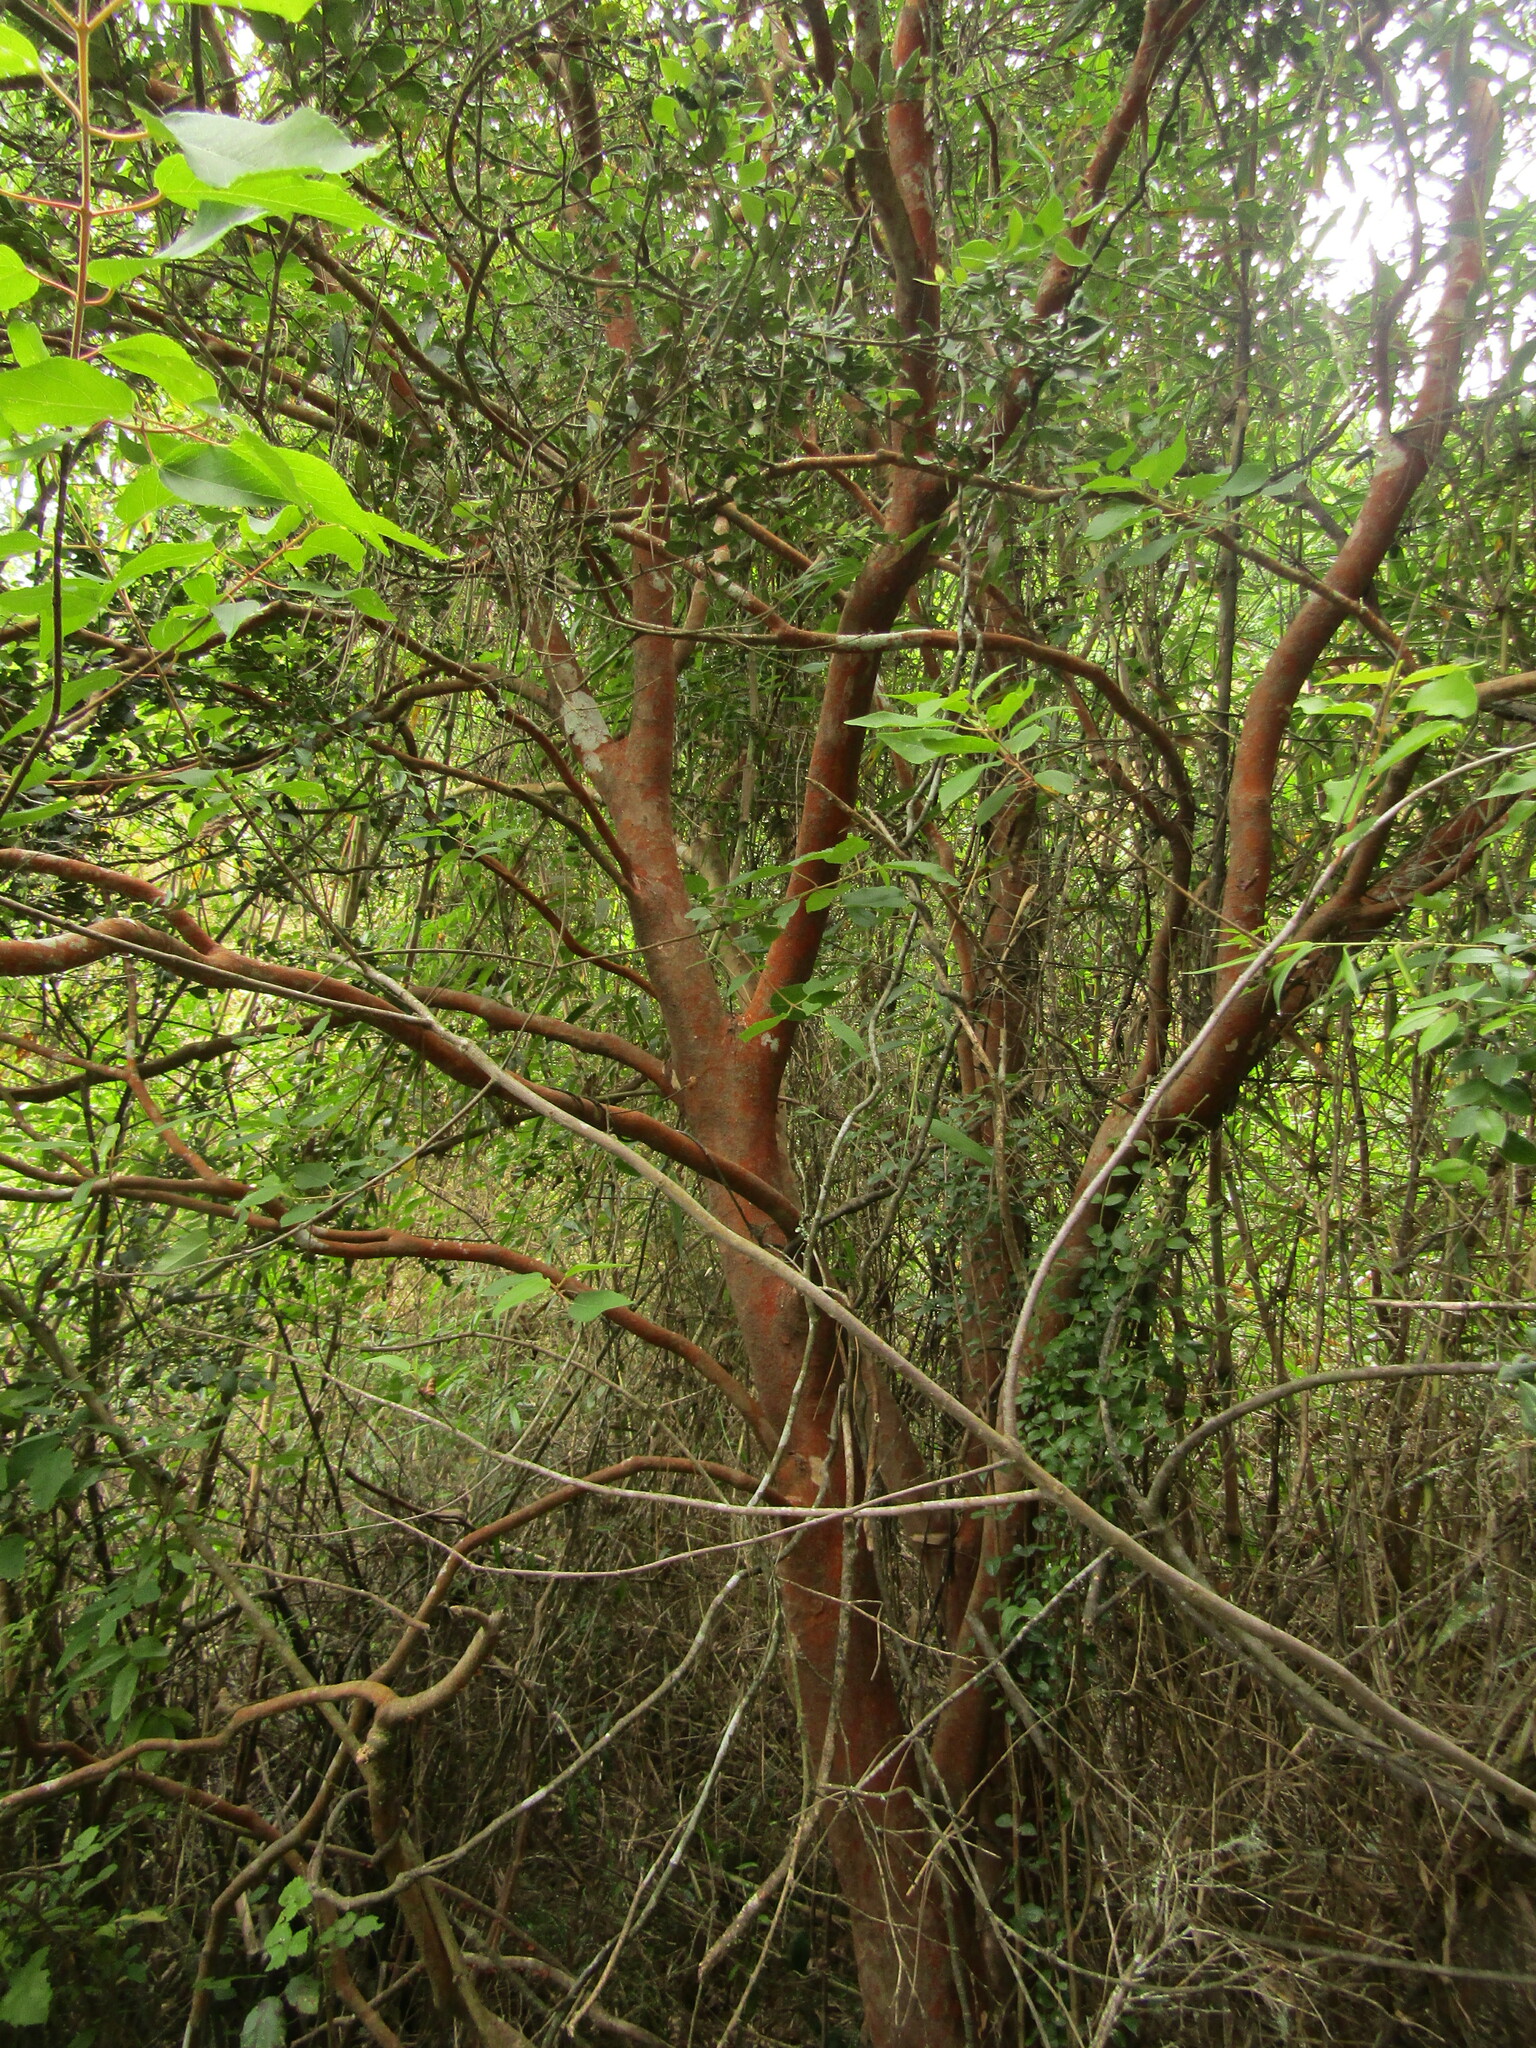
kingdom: Plantae
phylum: Tracheophyta
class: Magnoliopsida
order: Myrtales
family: Myrtaceae
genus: Luma
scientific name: Luma apiculata
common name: Chilean myrtle
